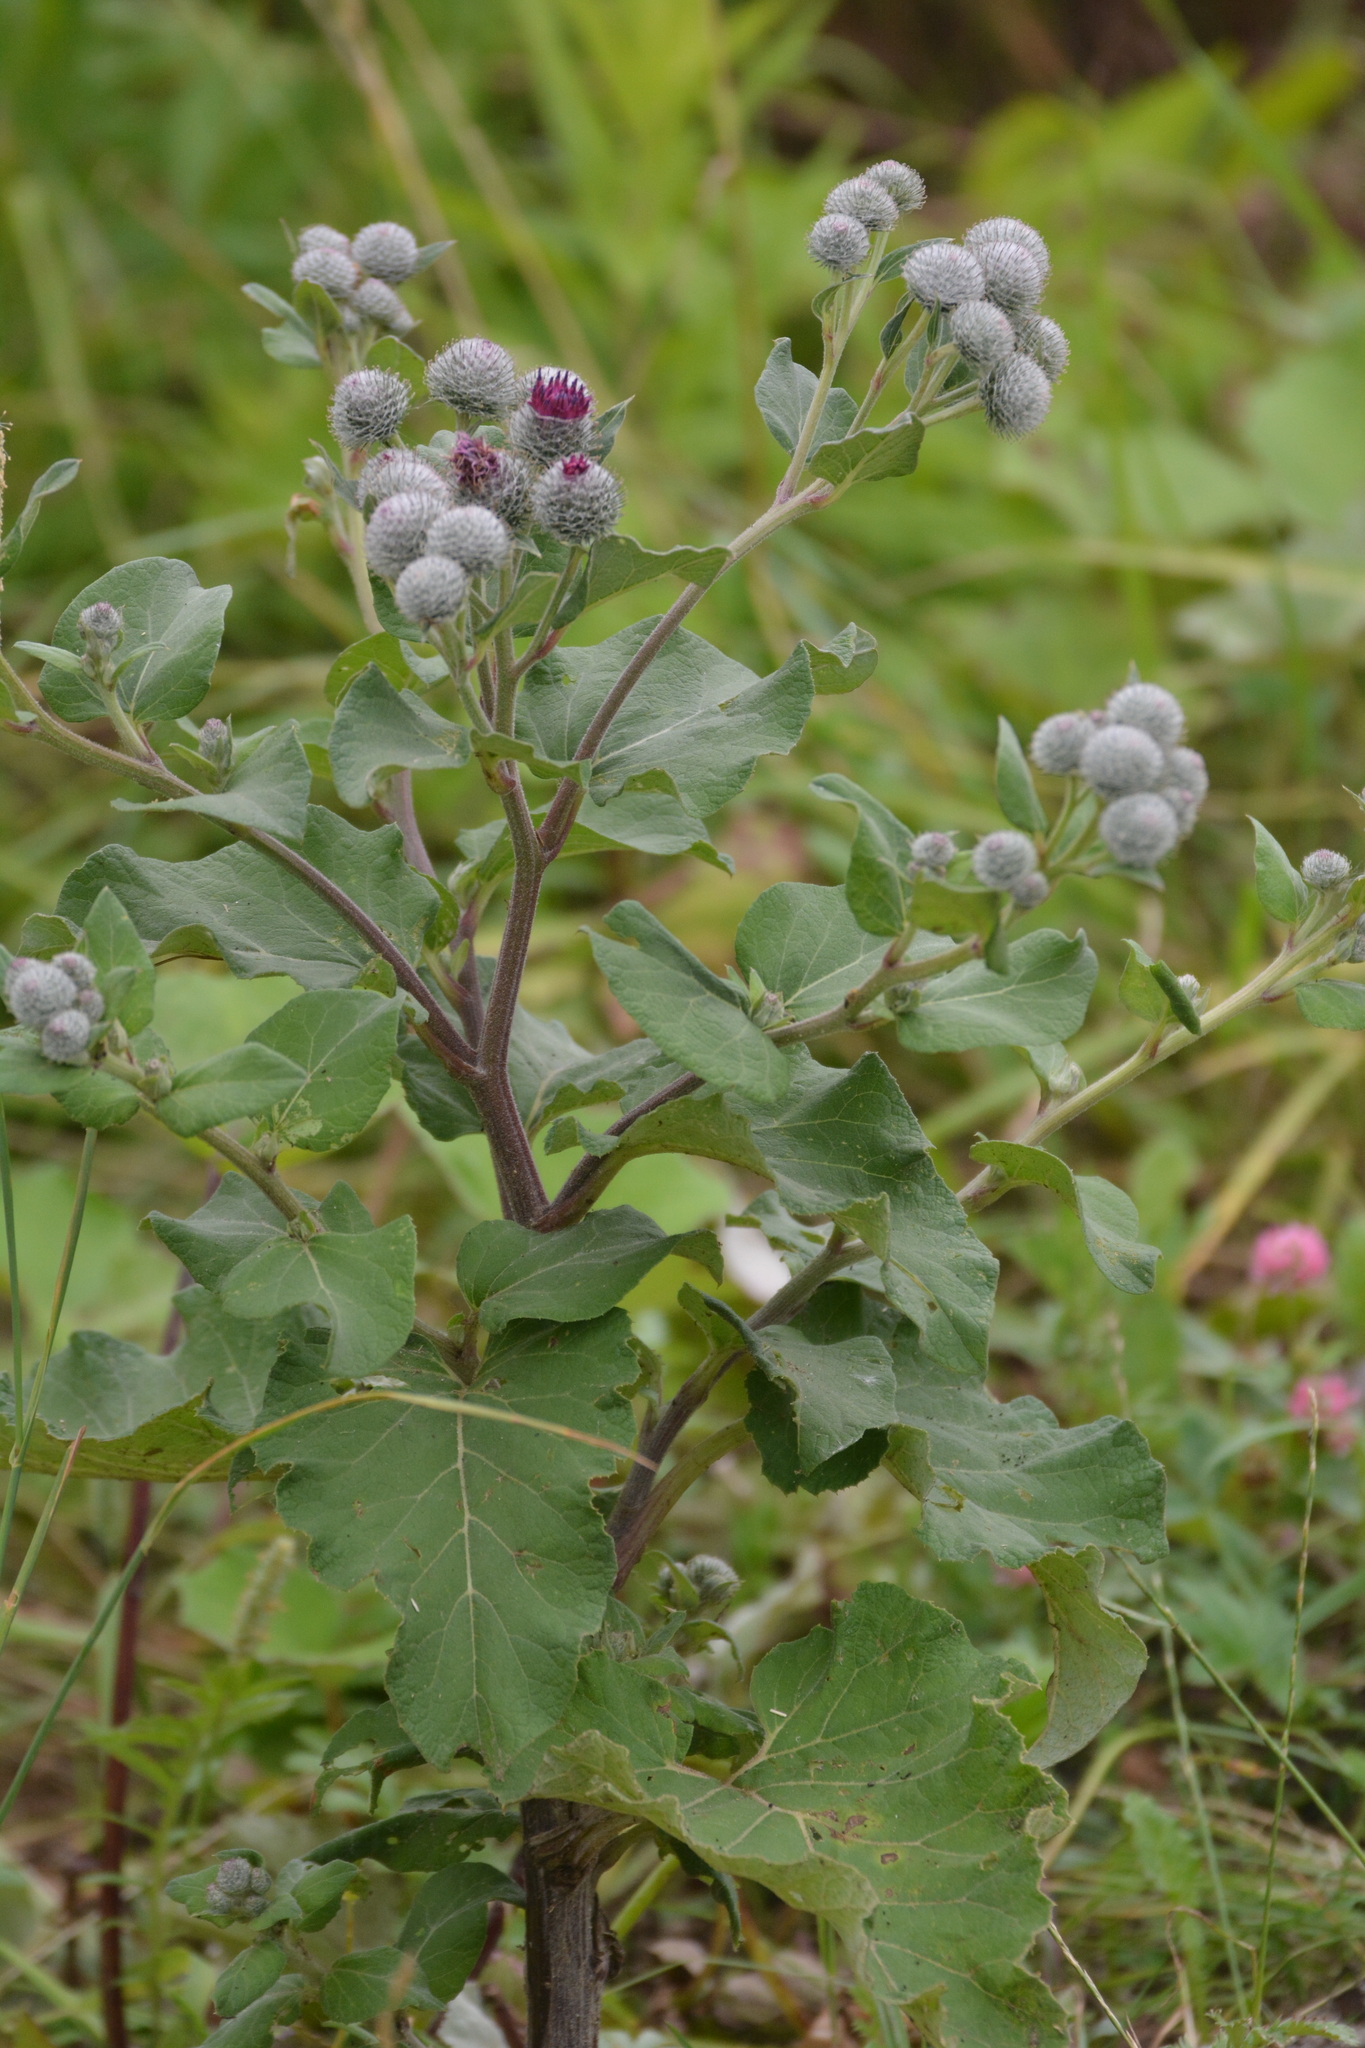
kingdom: Plantae
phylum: Tracheophyta
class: Magnoliopsida
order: Asterales
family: Asteraceae
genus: Arctium
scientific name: Arctium tomentosum
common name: Woolly burdock
